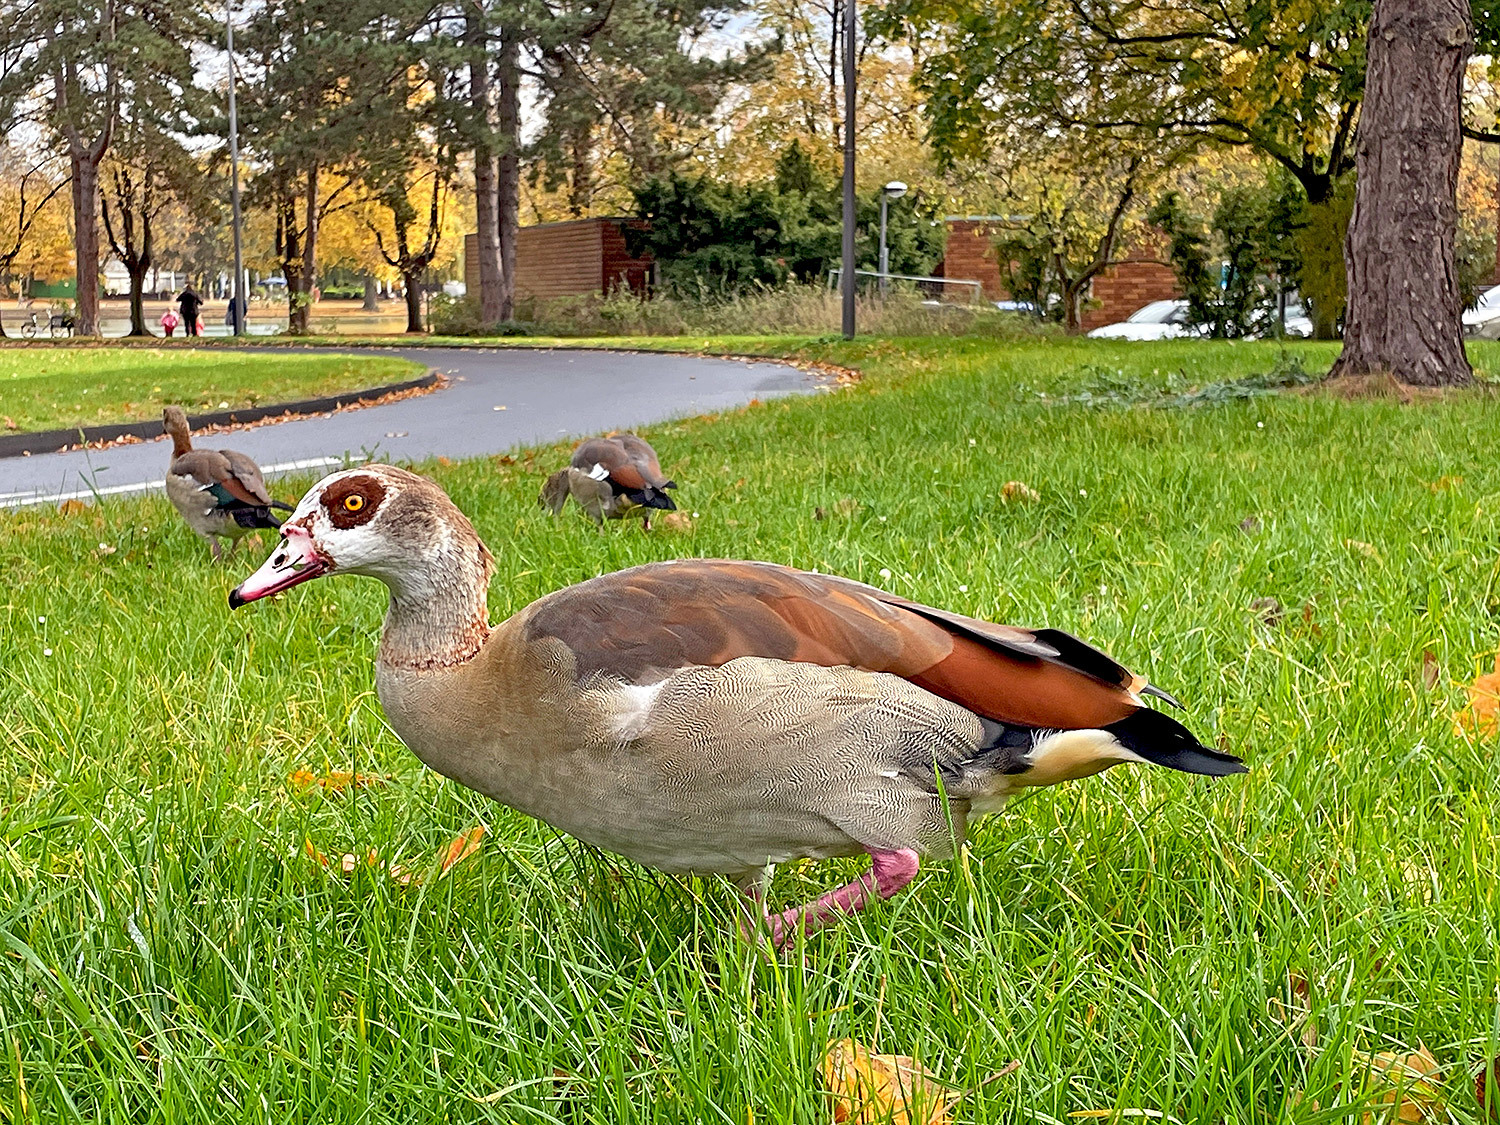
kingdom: Animalia
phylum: Chordata
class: Aves
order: Anseriformes
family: Anatidae
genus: Alopochen
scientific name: Alopochen aegyptiaca
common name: Egyptian goose
